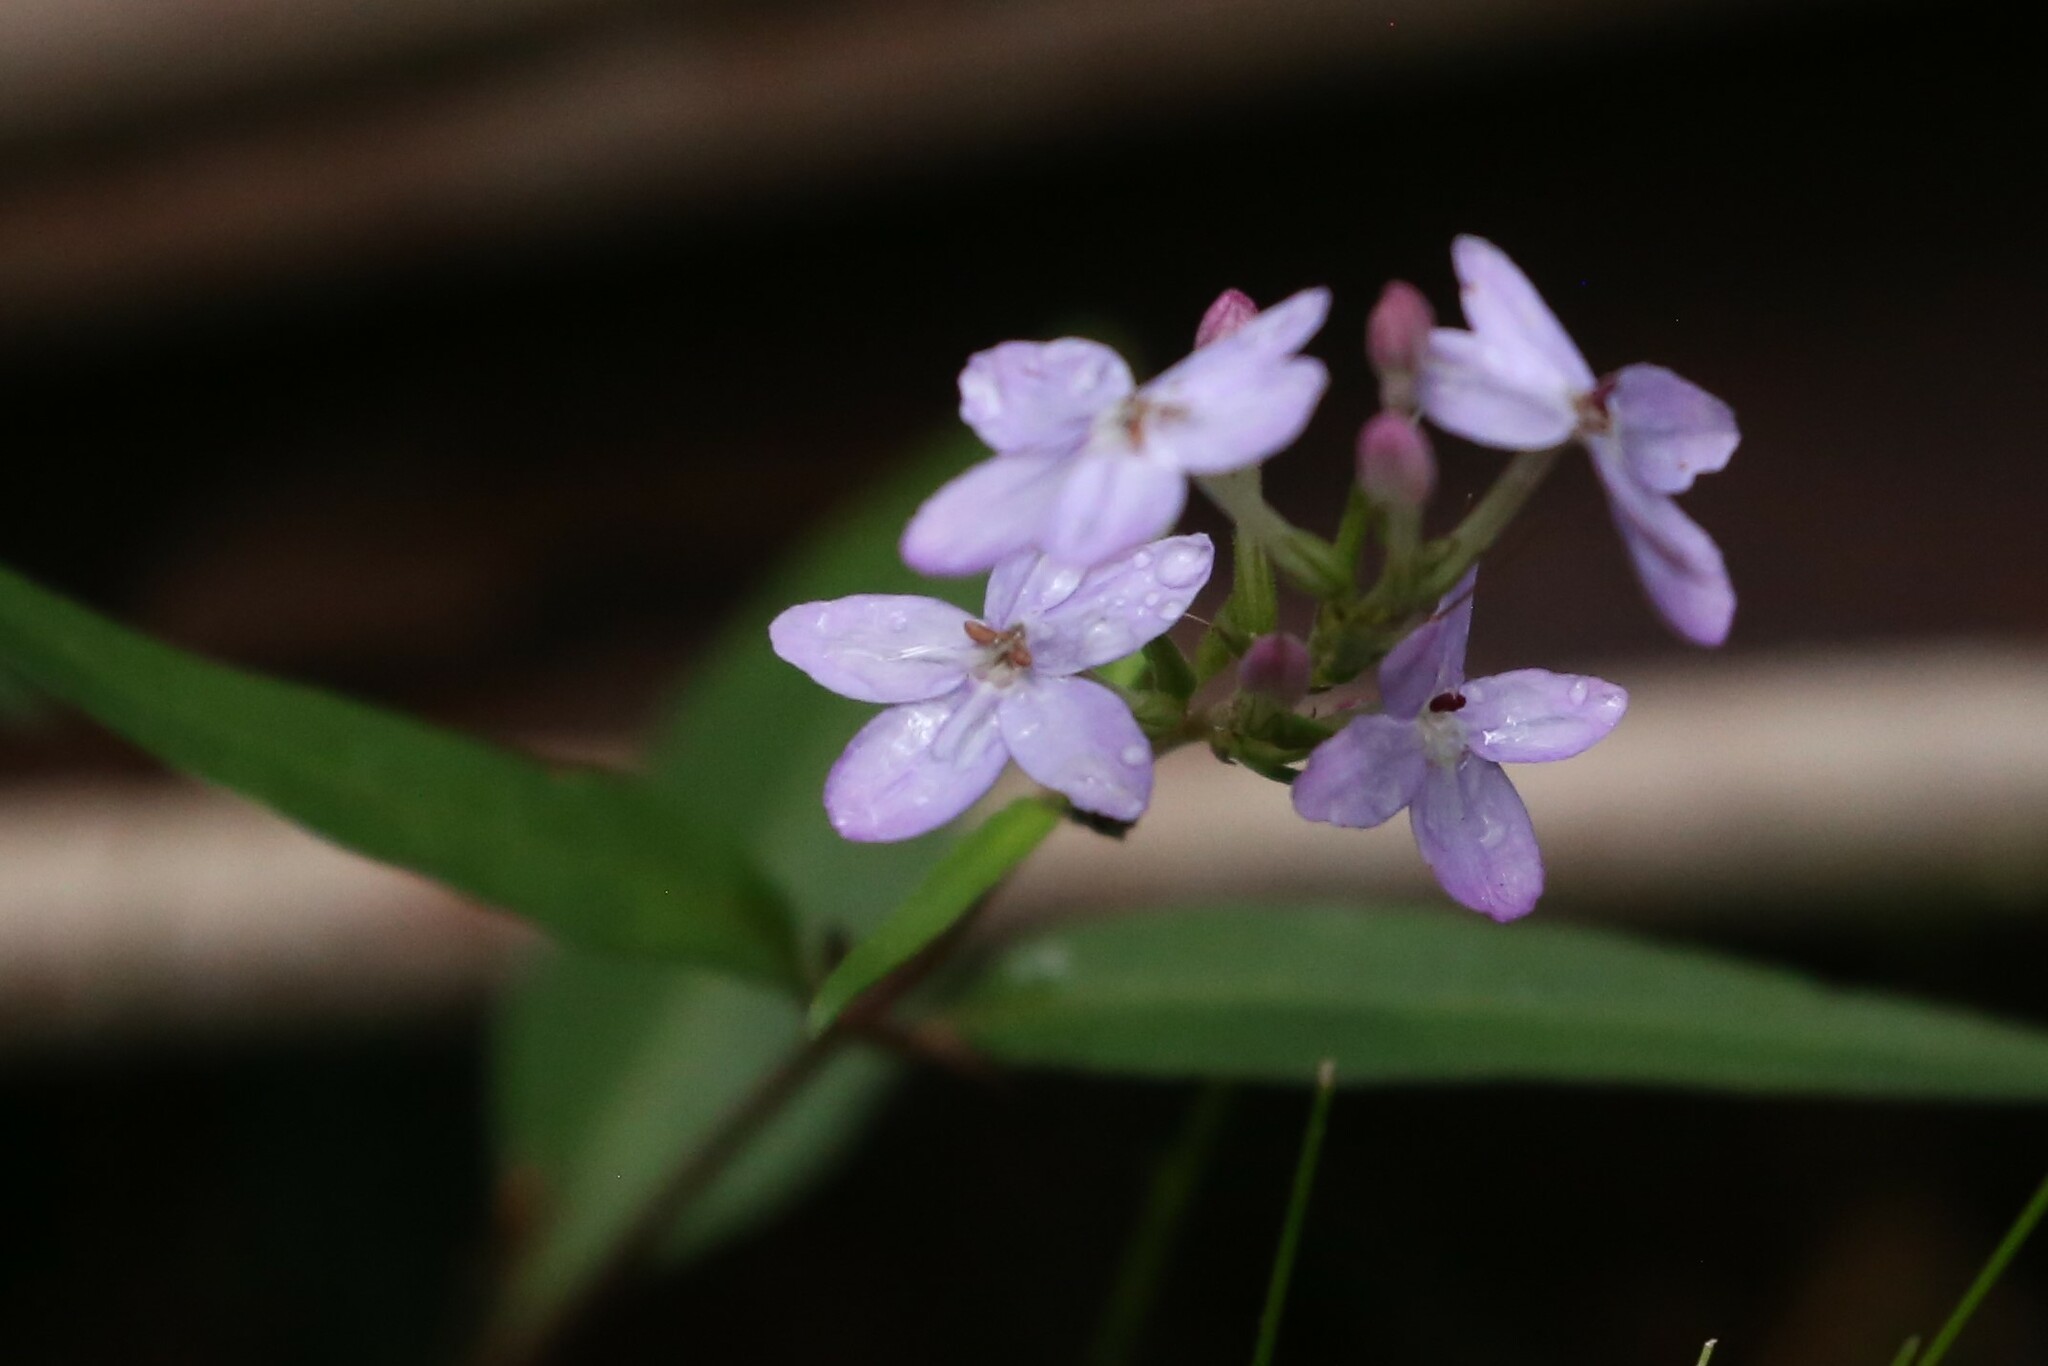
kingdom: Plantae
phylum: Tracheophyta
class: Magnoliopsida
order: Lamiales
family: Acanthaceae
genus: Pseuderanthemum
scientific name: Pseuderanthemum variabile
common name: Night and afternoon
